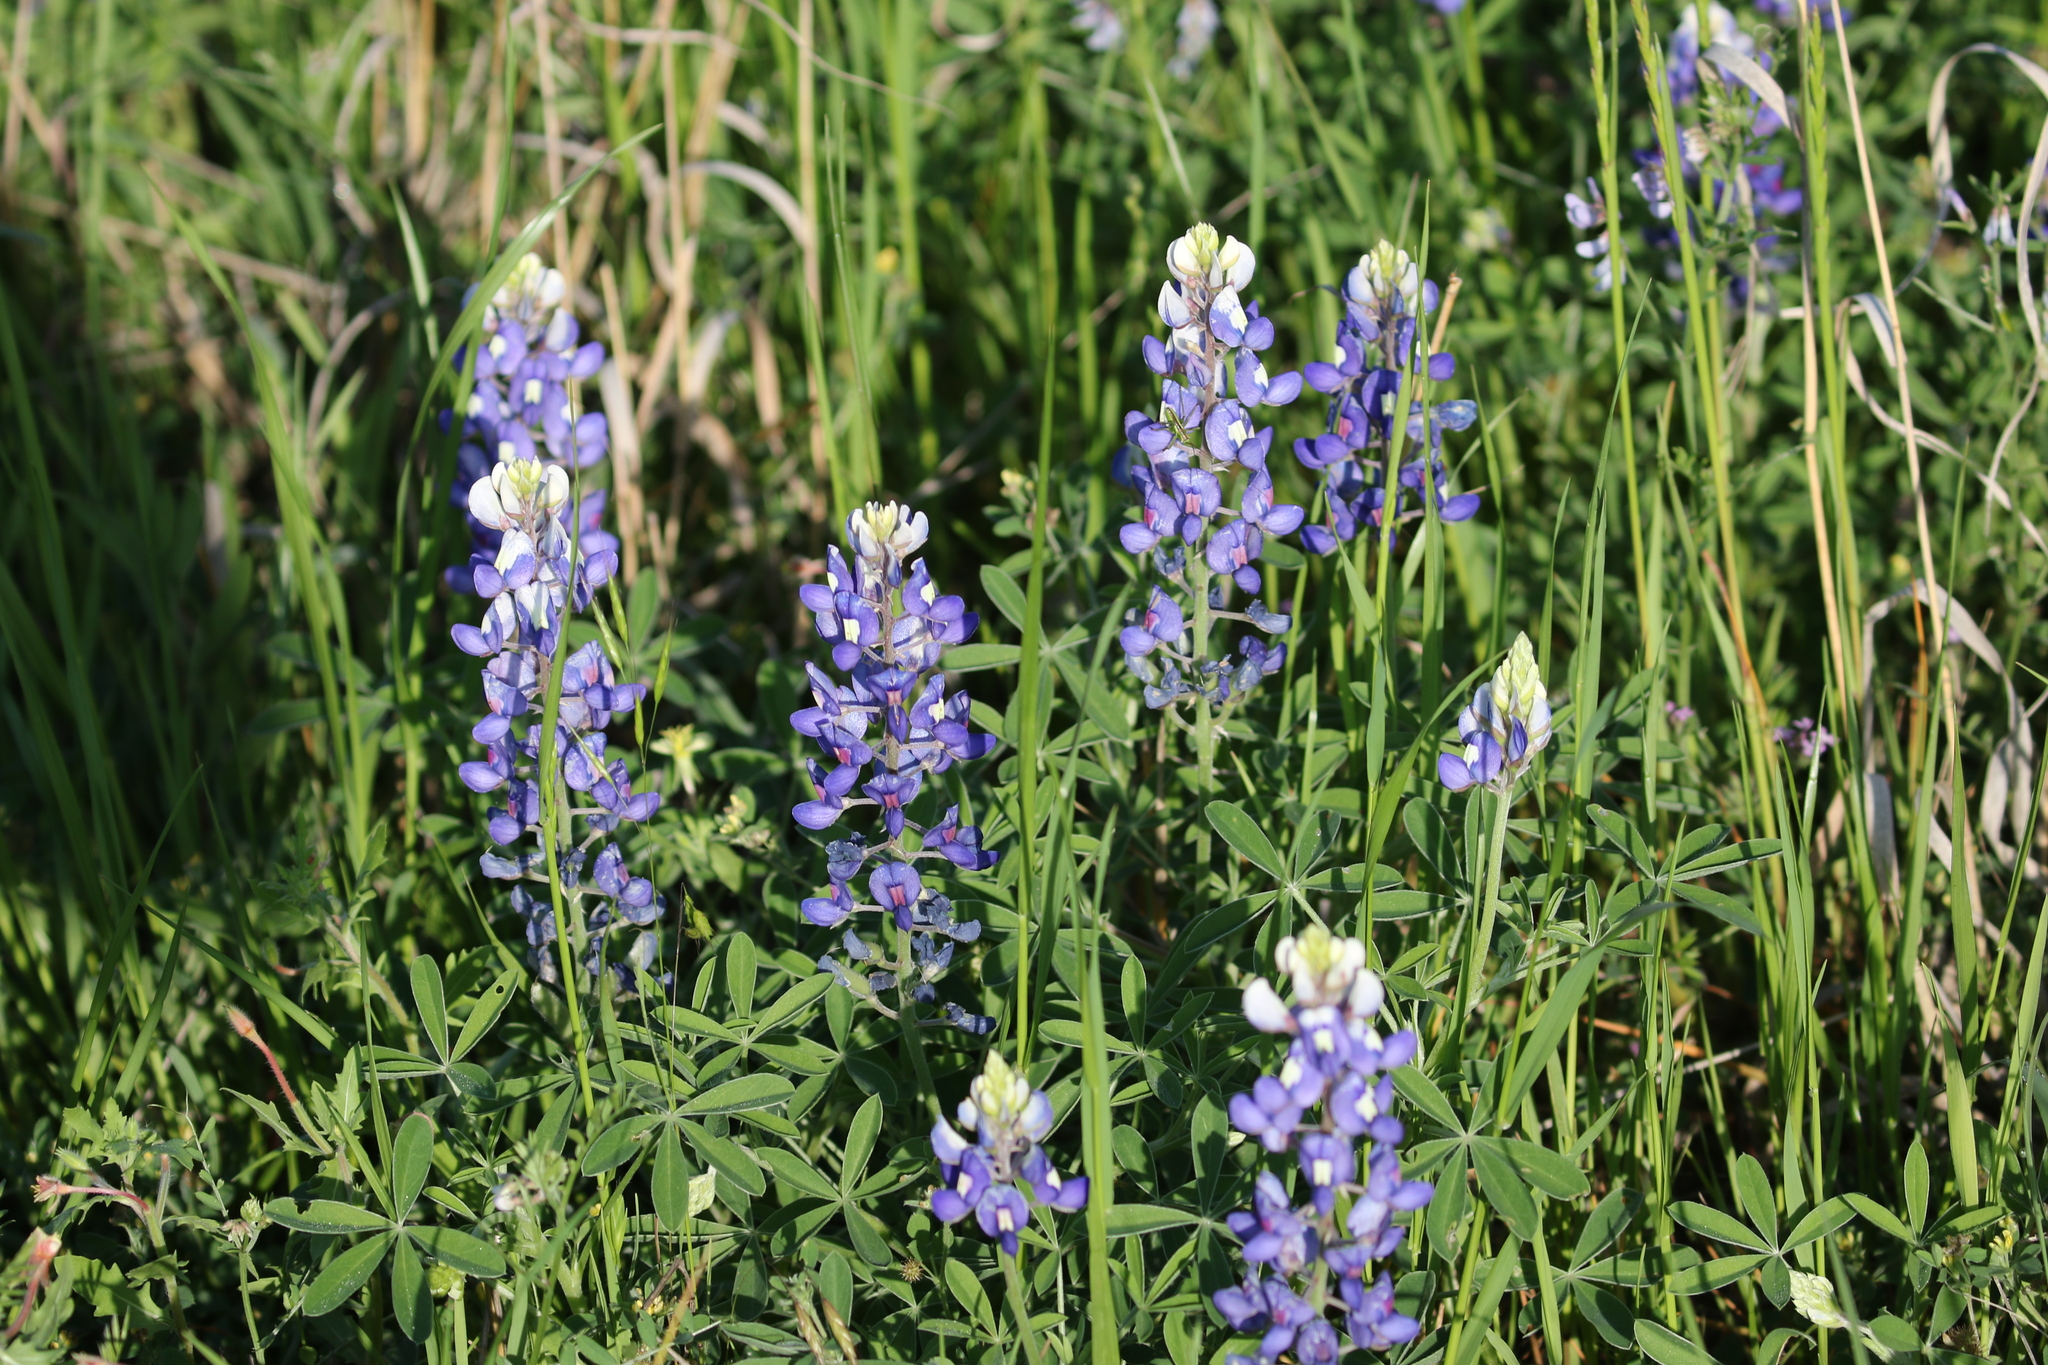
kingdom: Plantae
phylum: Tracheophyta
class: Magnoliopsida
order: Fabales
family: Fabaceae
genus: Lupinus
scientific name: Lupinus texensis
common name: Texas bluebonnet
